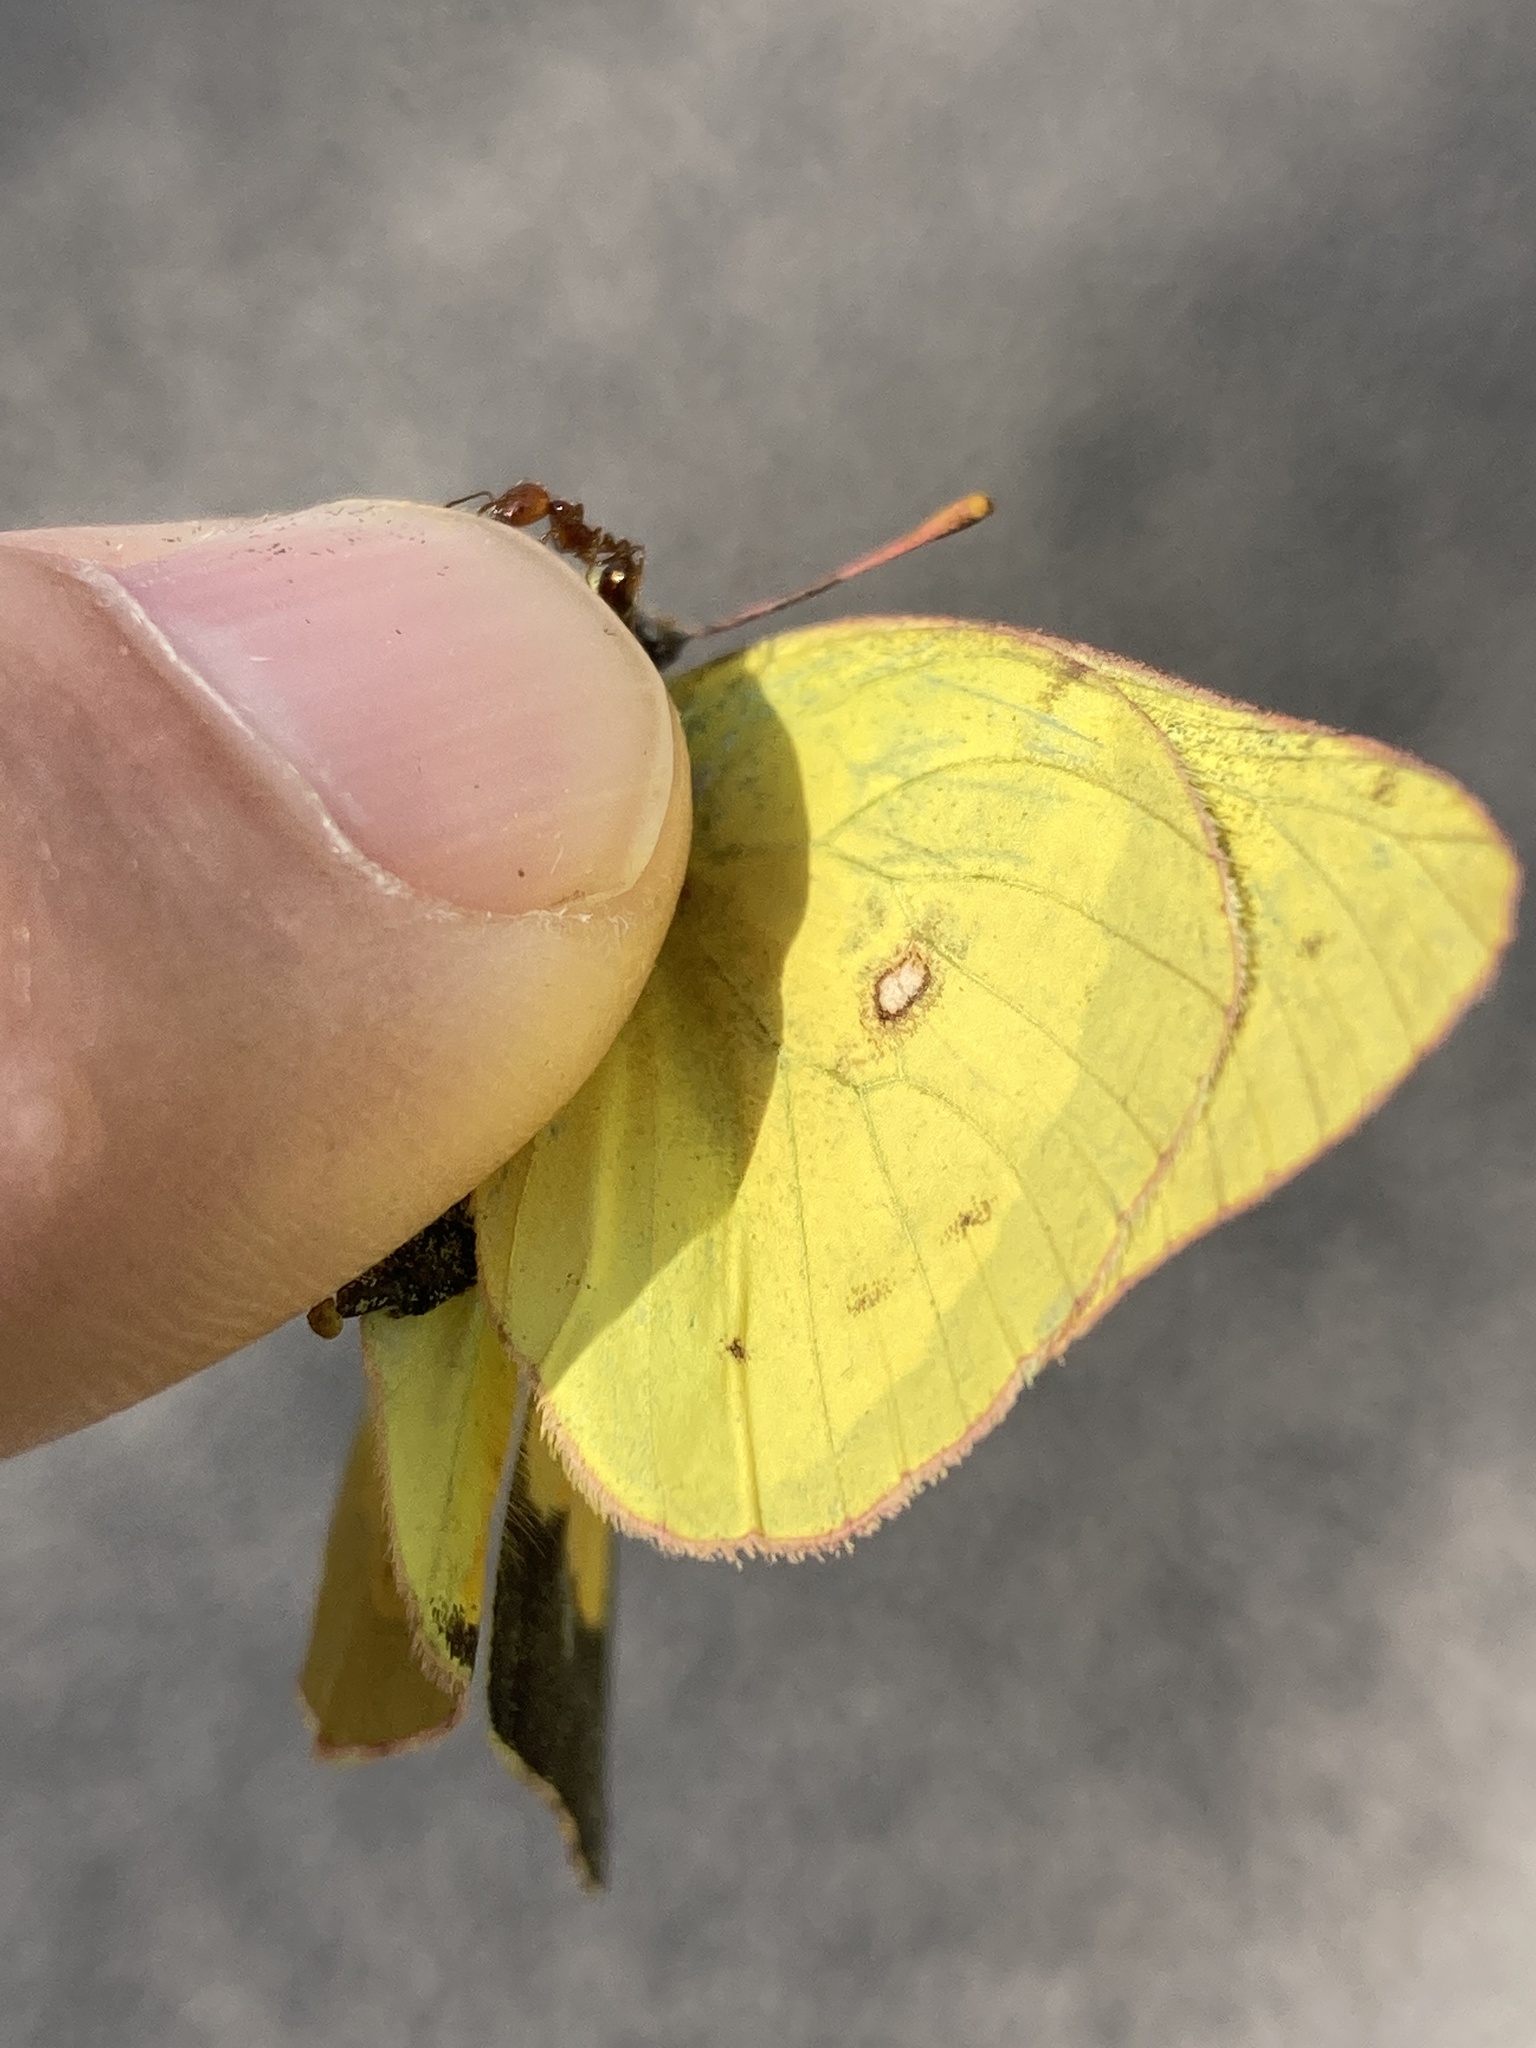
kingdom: Animalia
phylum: Arthropoda
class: Insecta
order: Lepidoptera
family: Pieridae
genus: Colias
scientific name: Colias eurytheme
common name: Alfalfa butterfly
